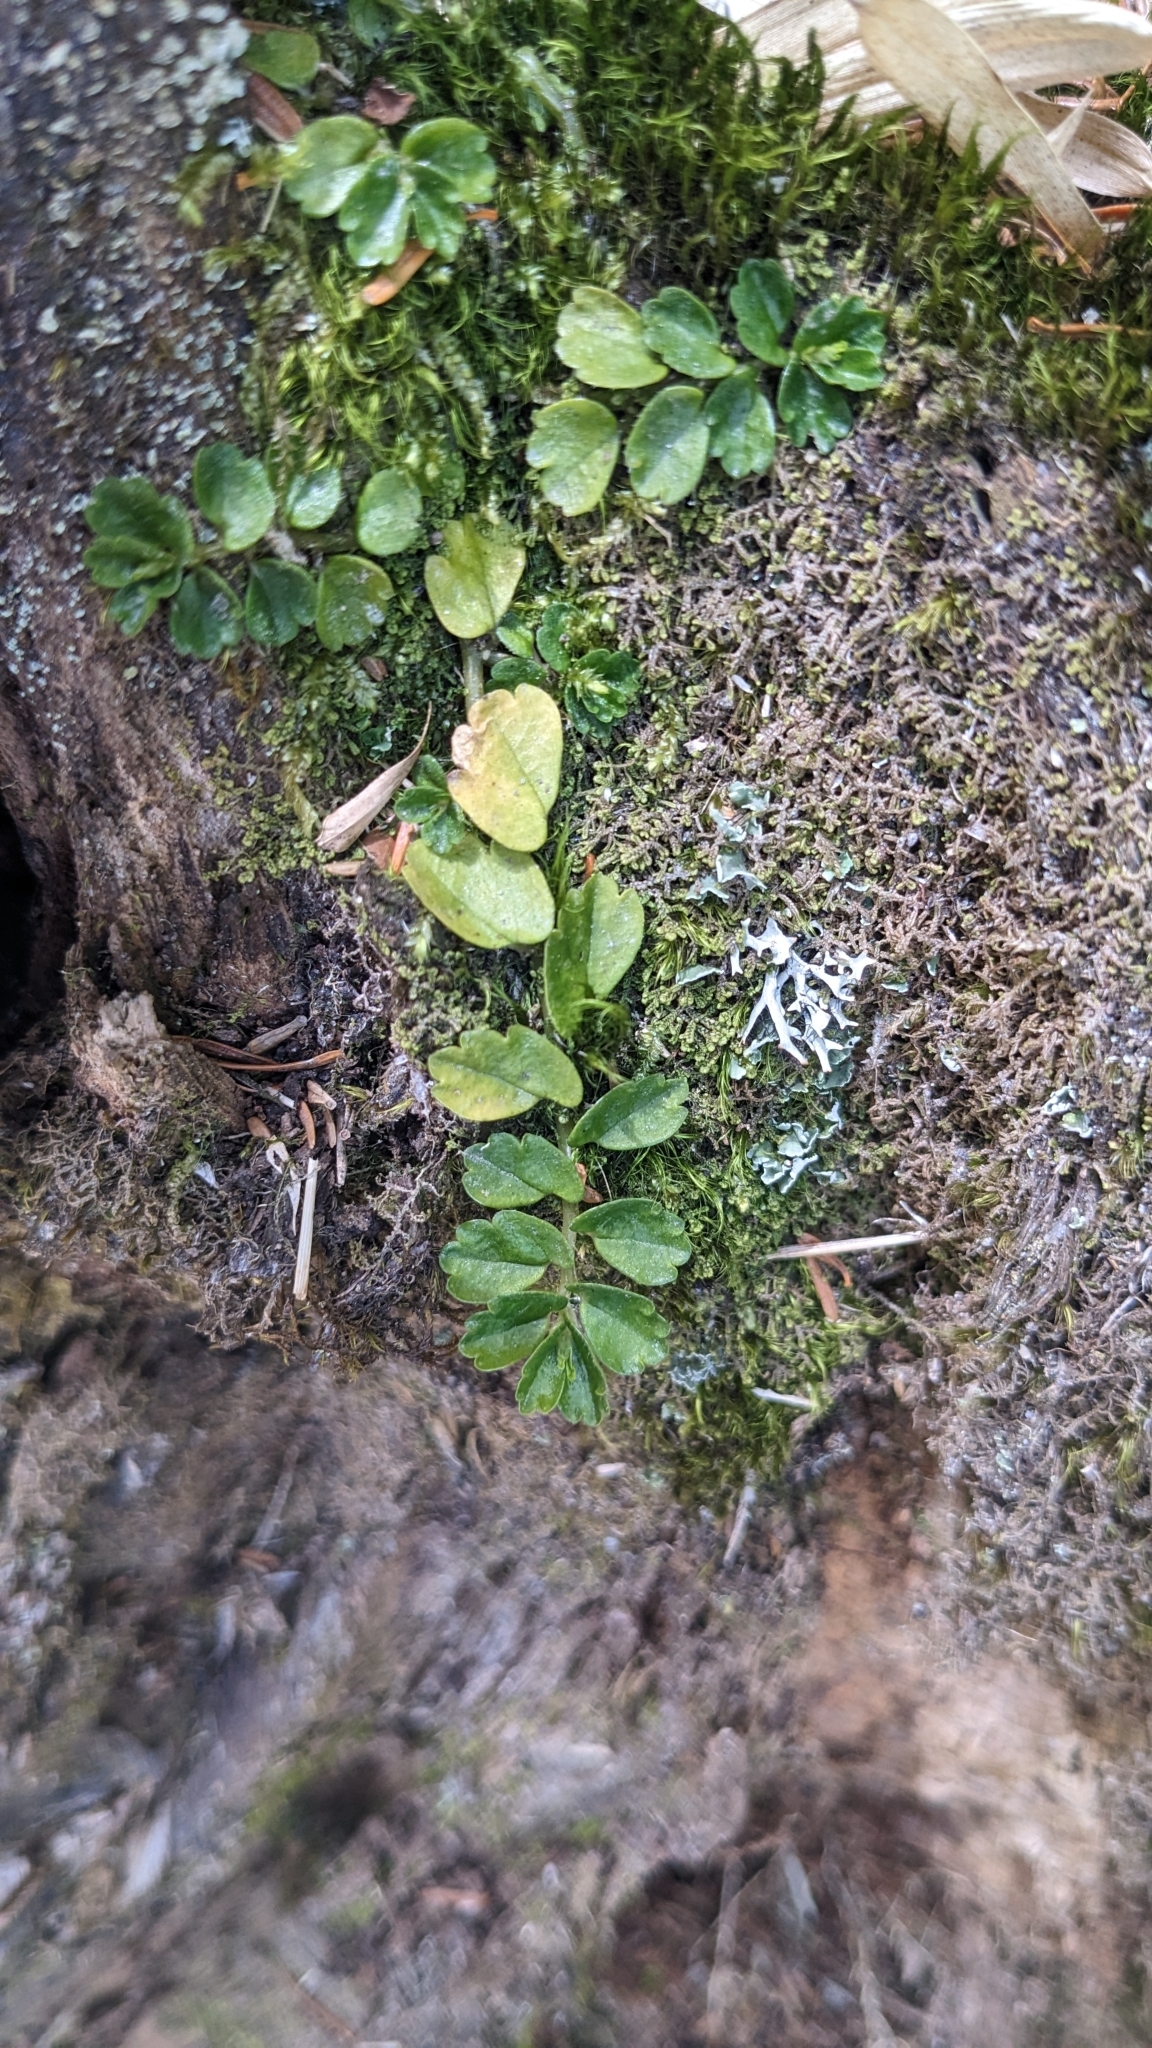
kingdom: Plantae
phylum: Tracheophyta
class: Magnoliopsida
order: Rosales
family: Urticaceae
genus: Elatostema
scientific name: Elatostema obtusum
